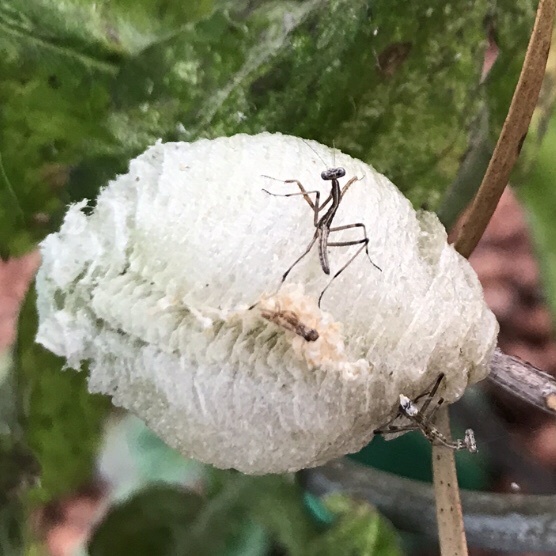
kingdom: Animalia
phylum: Arthropoda
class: Insecta
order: Mantodea
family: Mantidae
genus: Archimantis
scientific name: Archimantis latistyla
